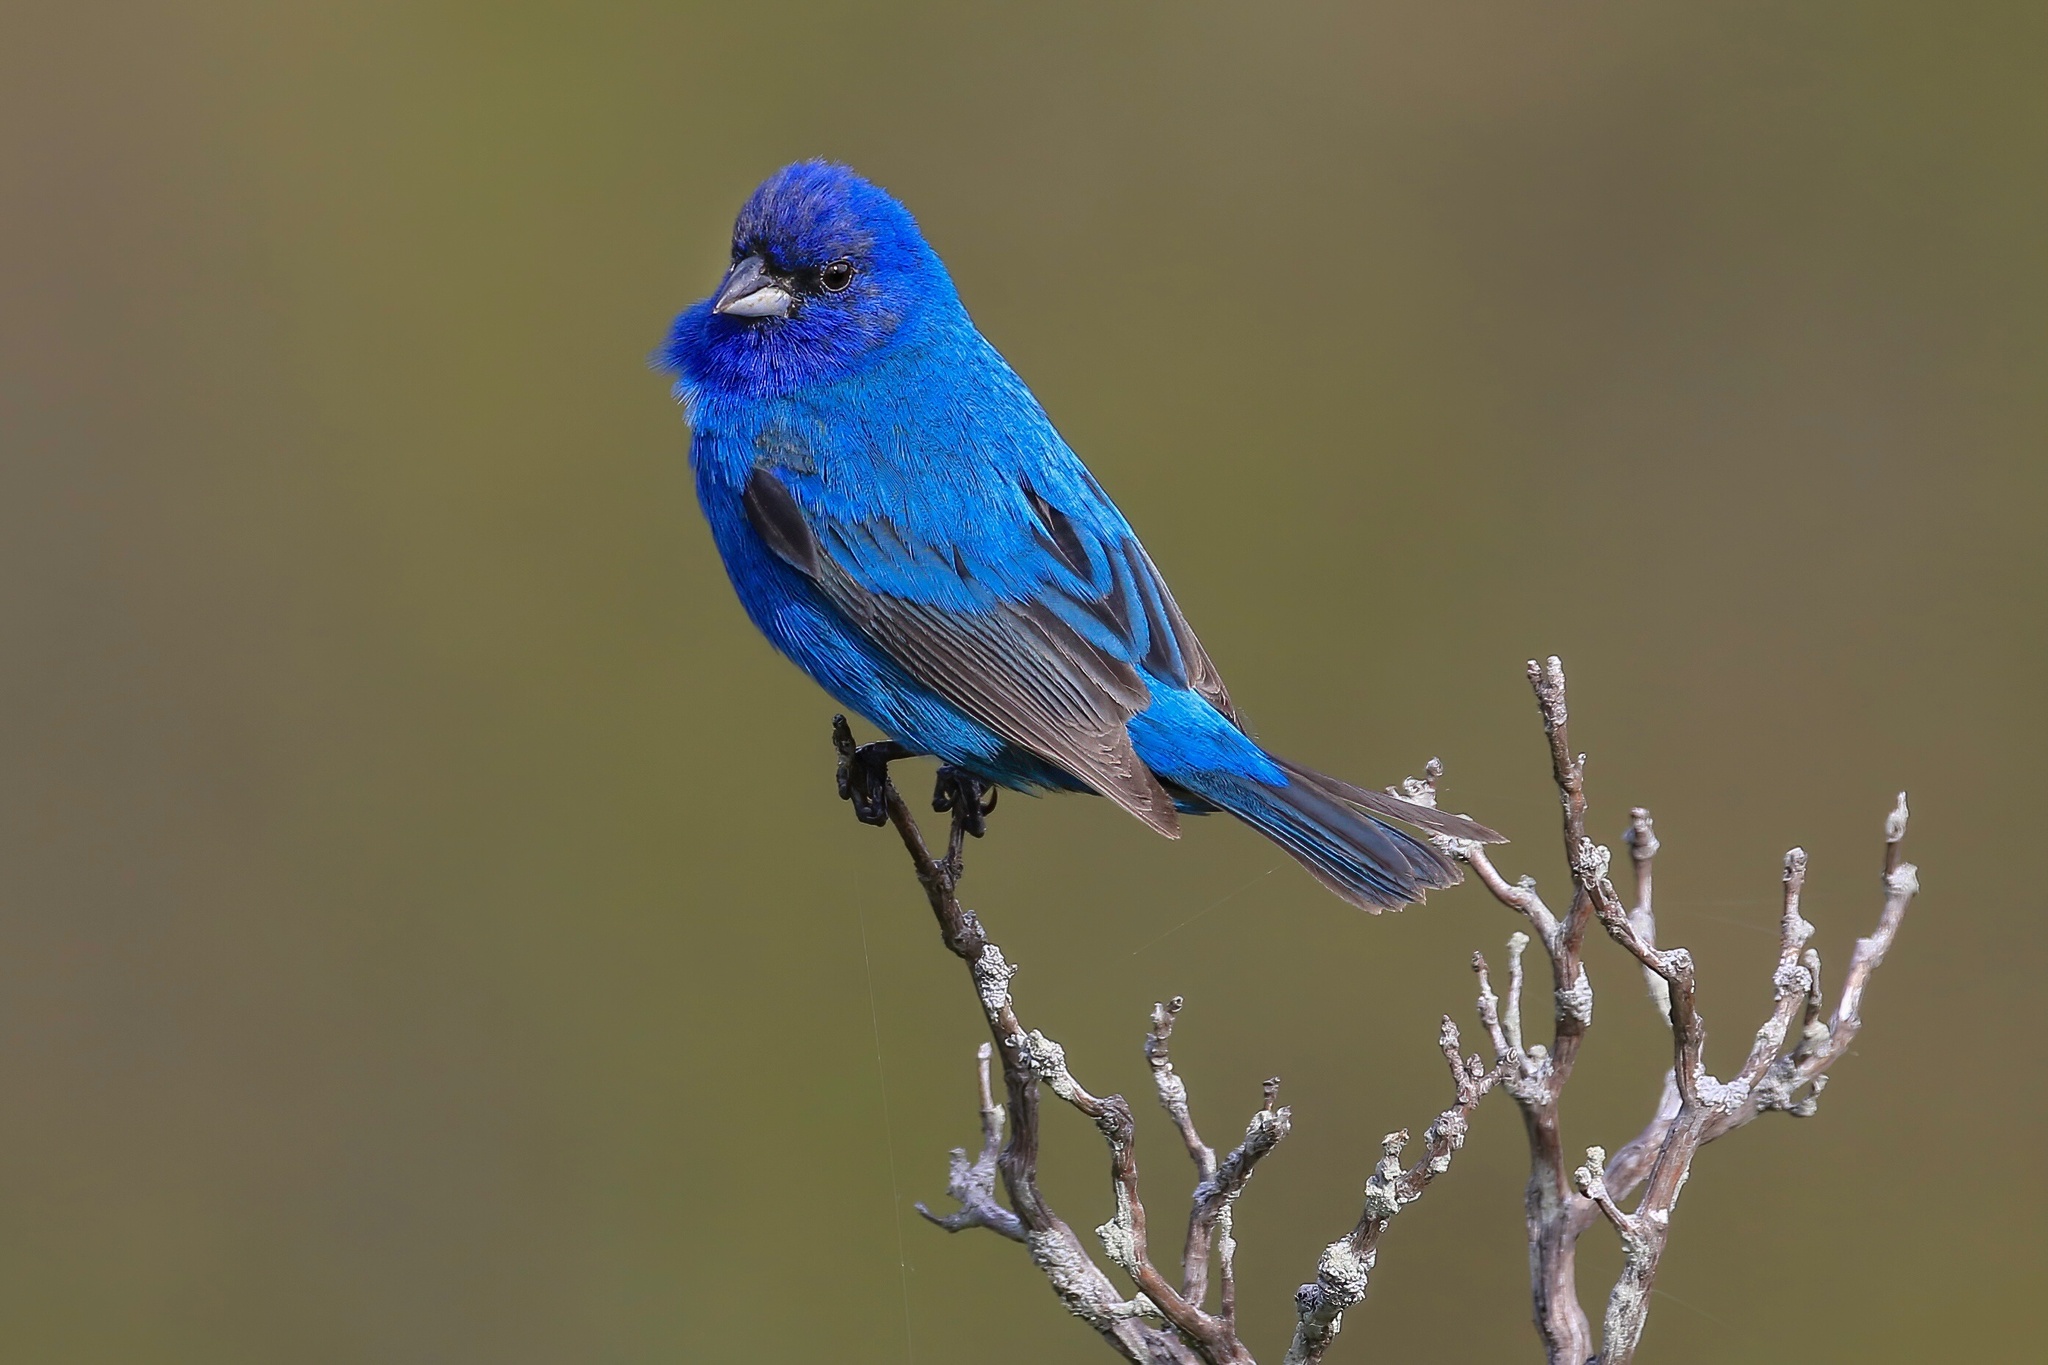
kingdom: Animalia
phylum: Chordata
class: Aves
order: Passeriformes
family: Cardinalidae
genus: Passerina
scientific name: Passerina cyanea
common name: Indigo bunting
